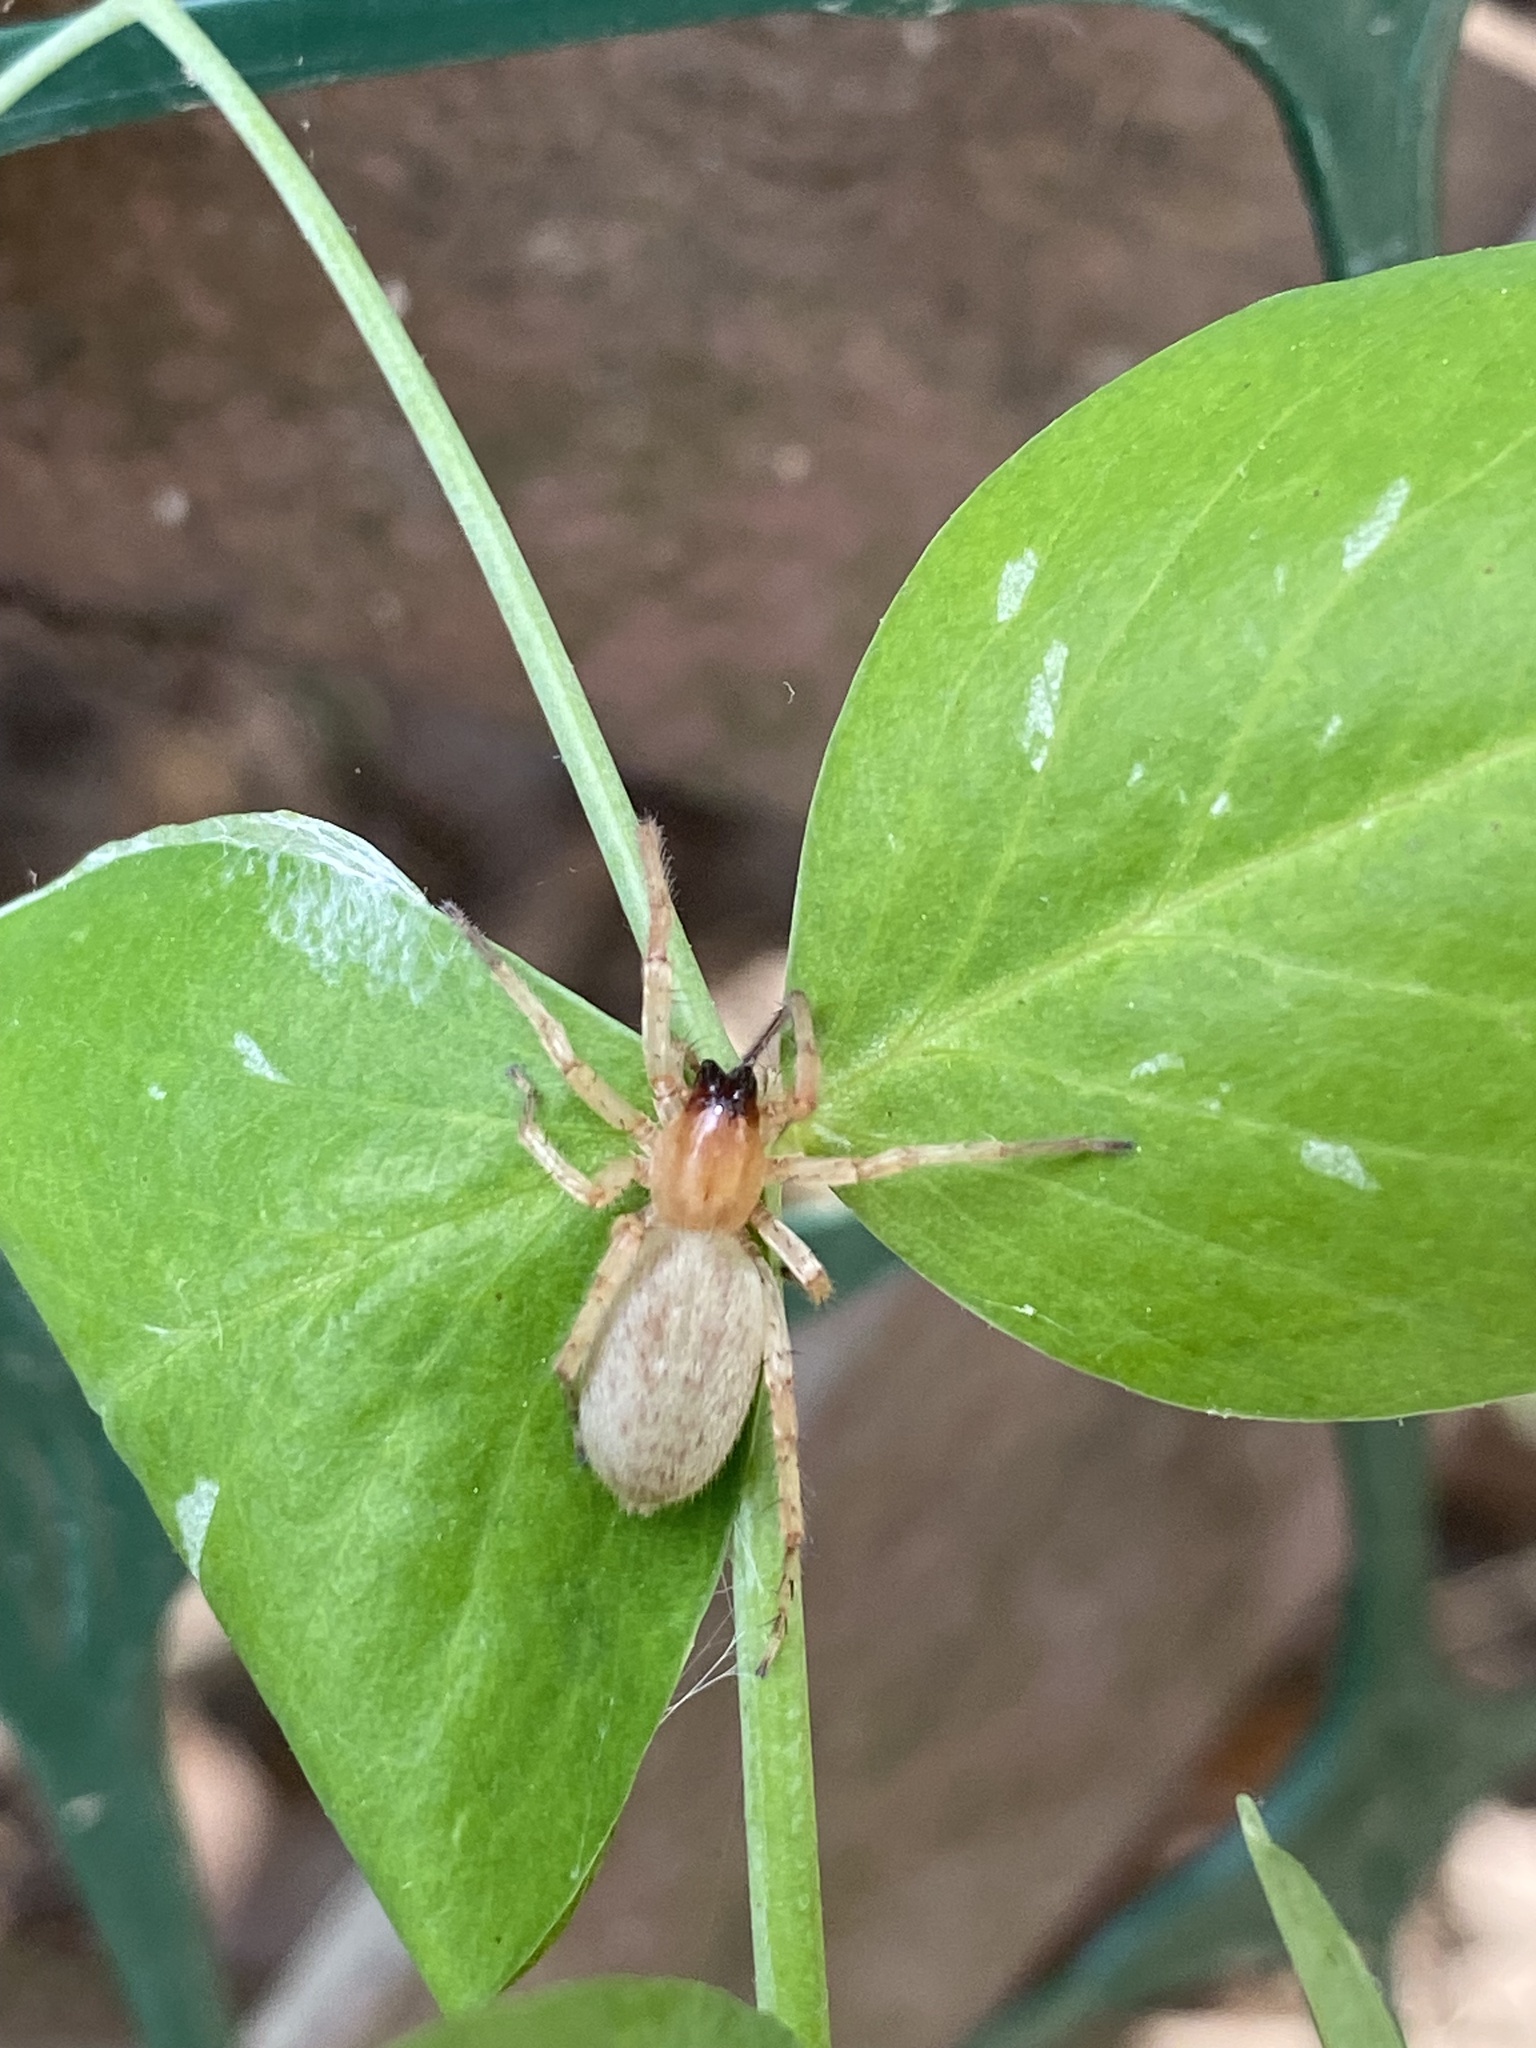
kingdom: Animalia
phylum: Arthropoda
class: Arachnida
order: Araneae
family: Anyphaenidae
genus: Hibana
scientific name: Hibana gracilis
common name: Garden ghost spider
